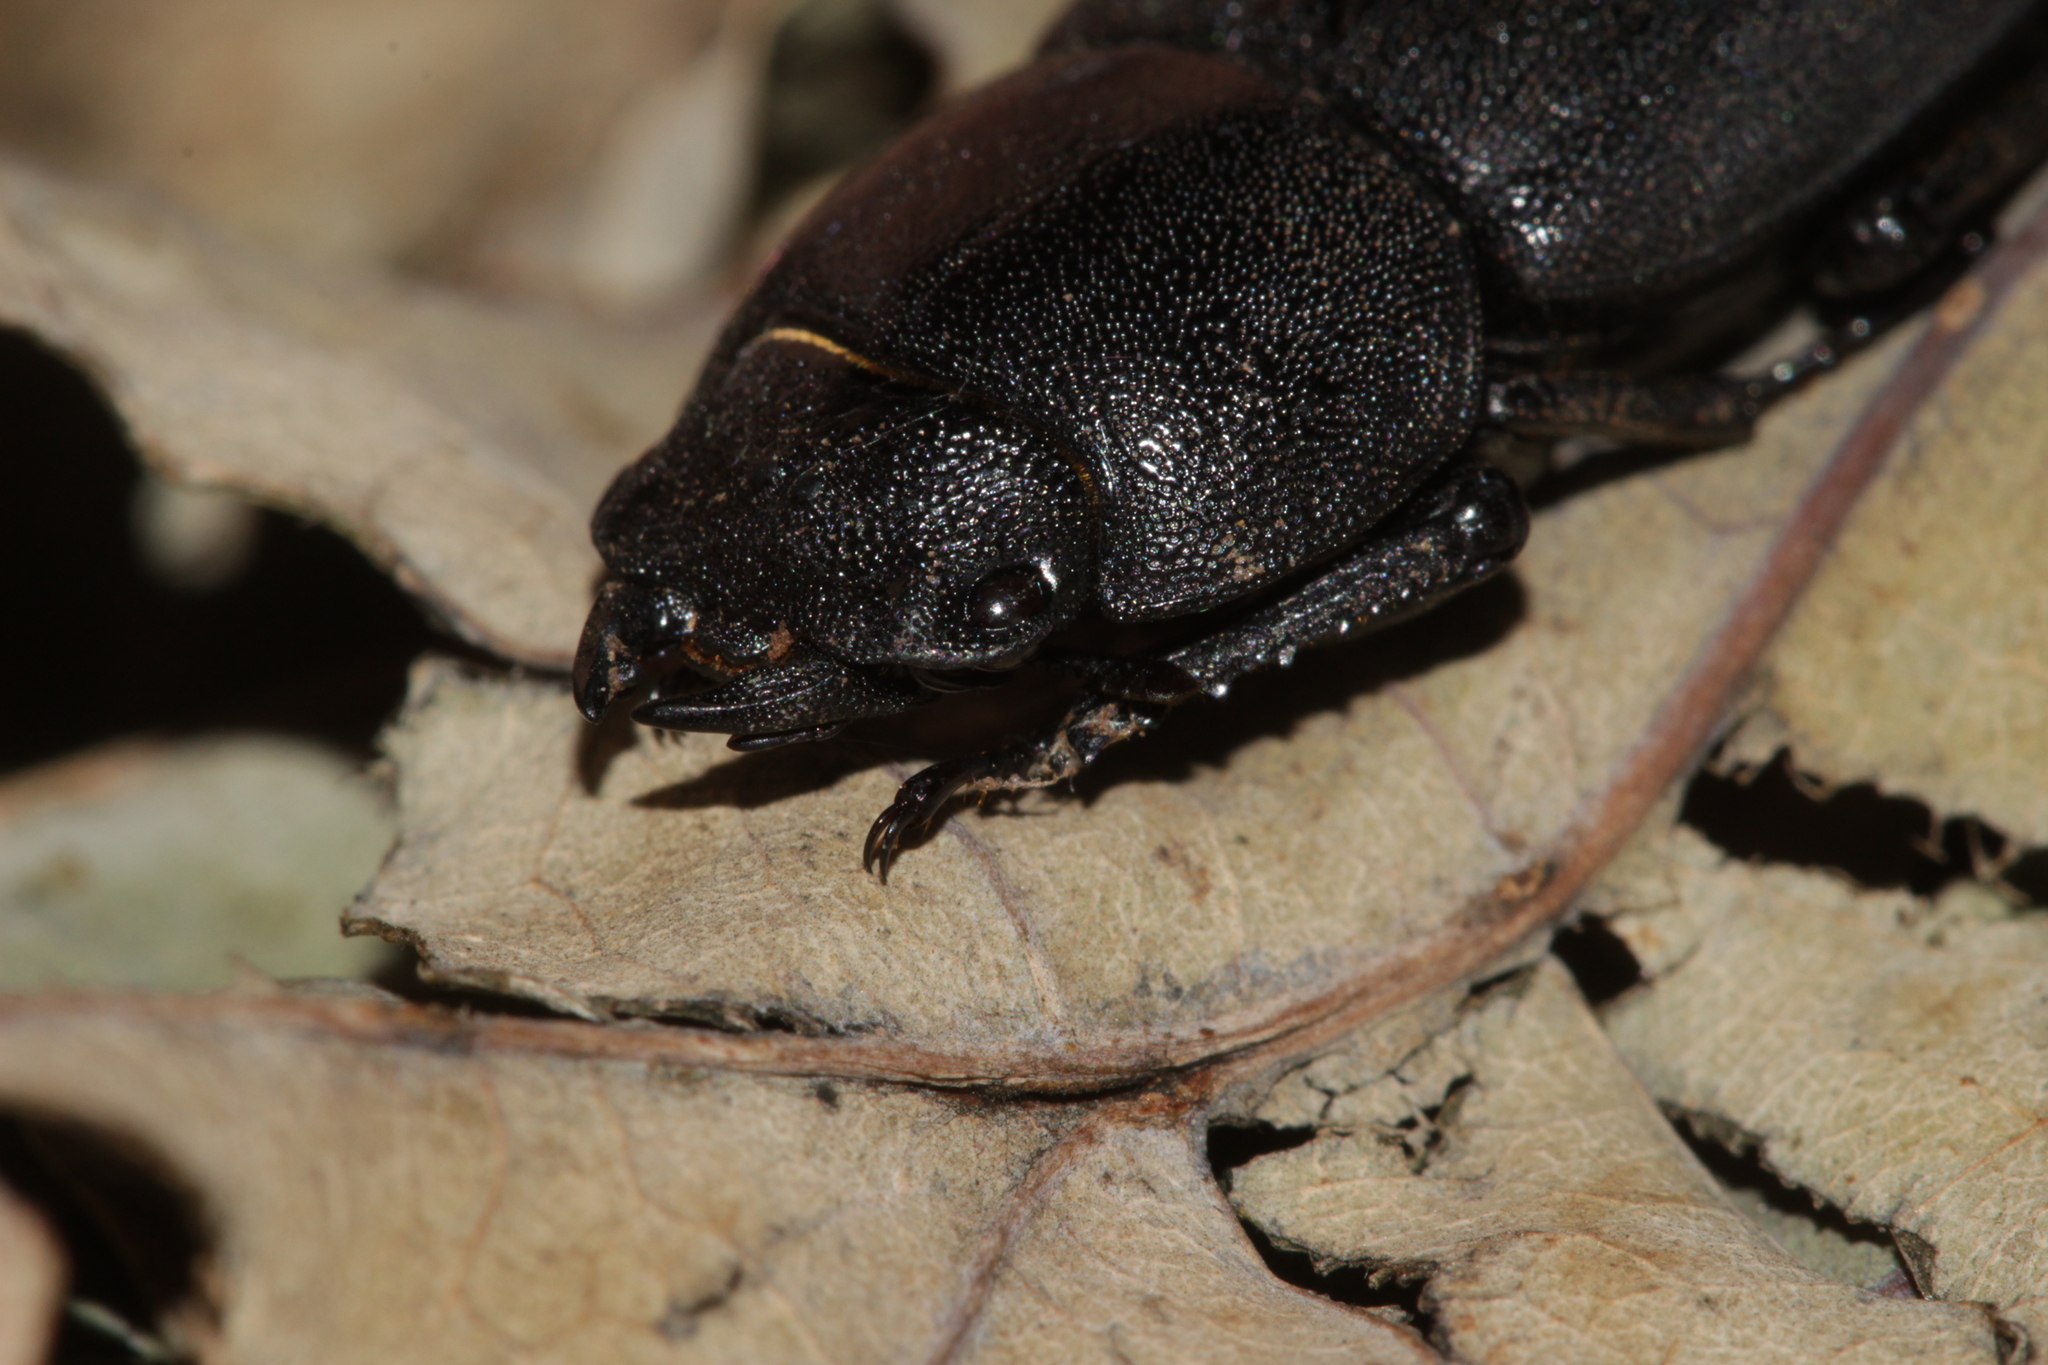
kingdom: Animalia
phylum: Arthropoda
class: Insecta
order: Coleoptera
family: Lucanidae
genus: Dorcus
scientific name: Dorcus parallelipipedus
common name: Lesser stag beetle
